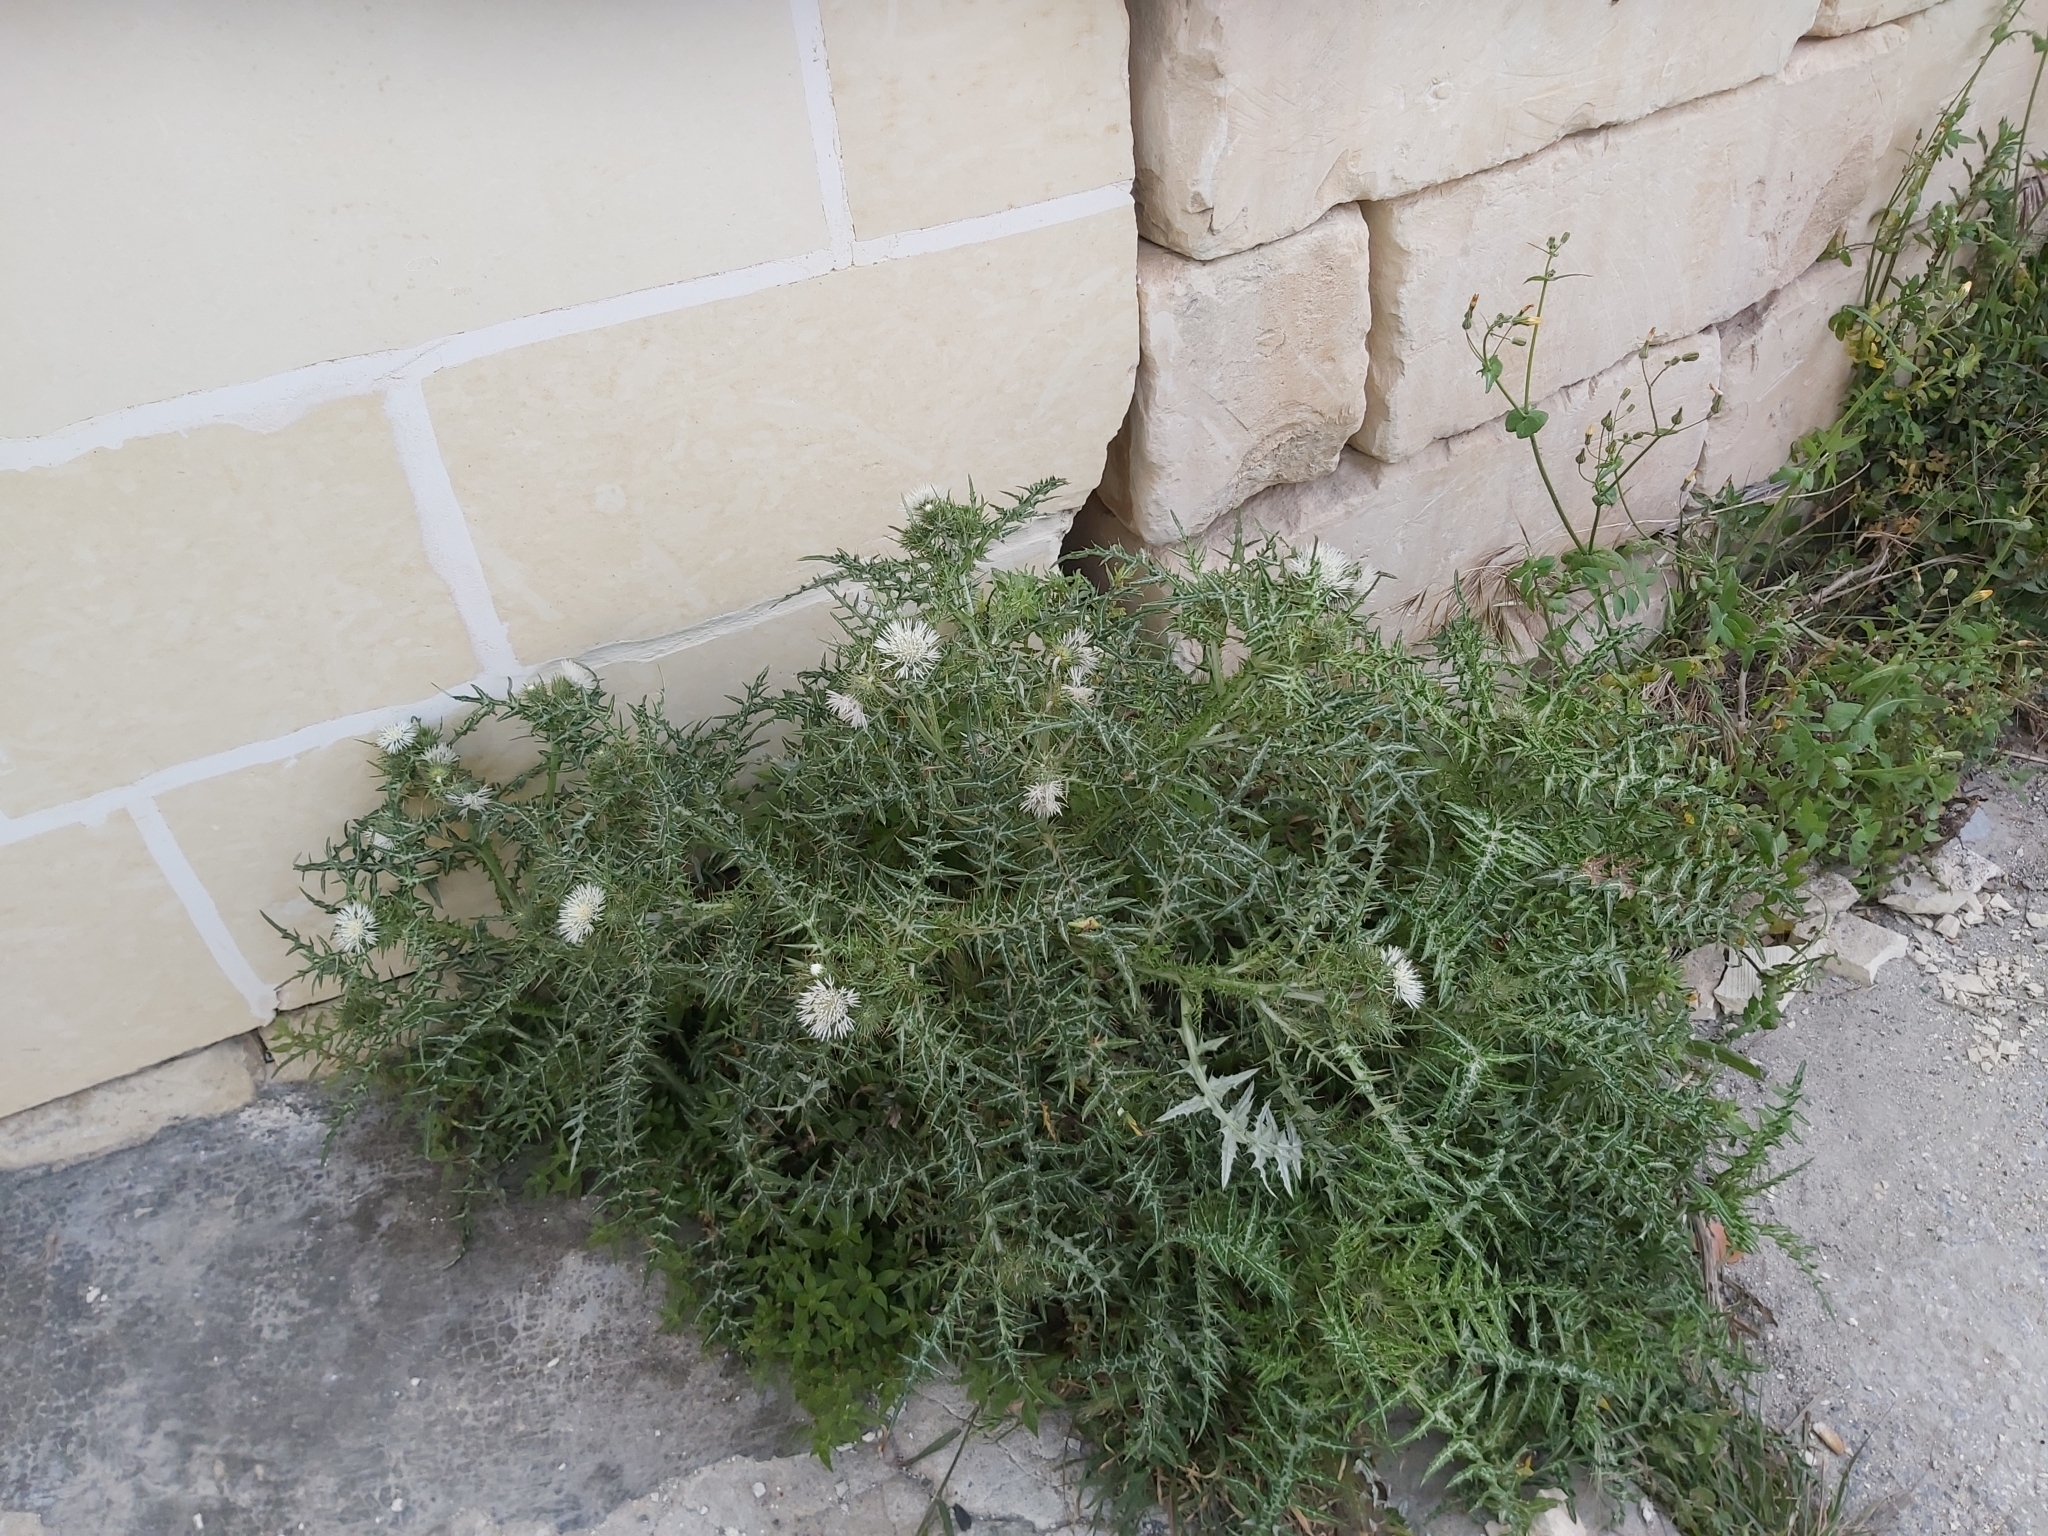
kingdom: Plantae
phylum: Tracheophyta
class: Magnoliopsida
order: Asterales
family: Asteraceae
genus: Galactites
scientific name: Galactites tomentosa
